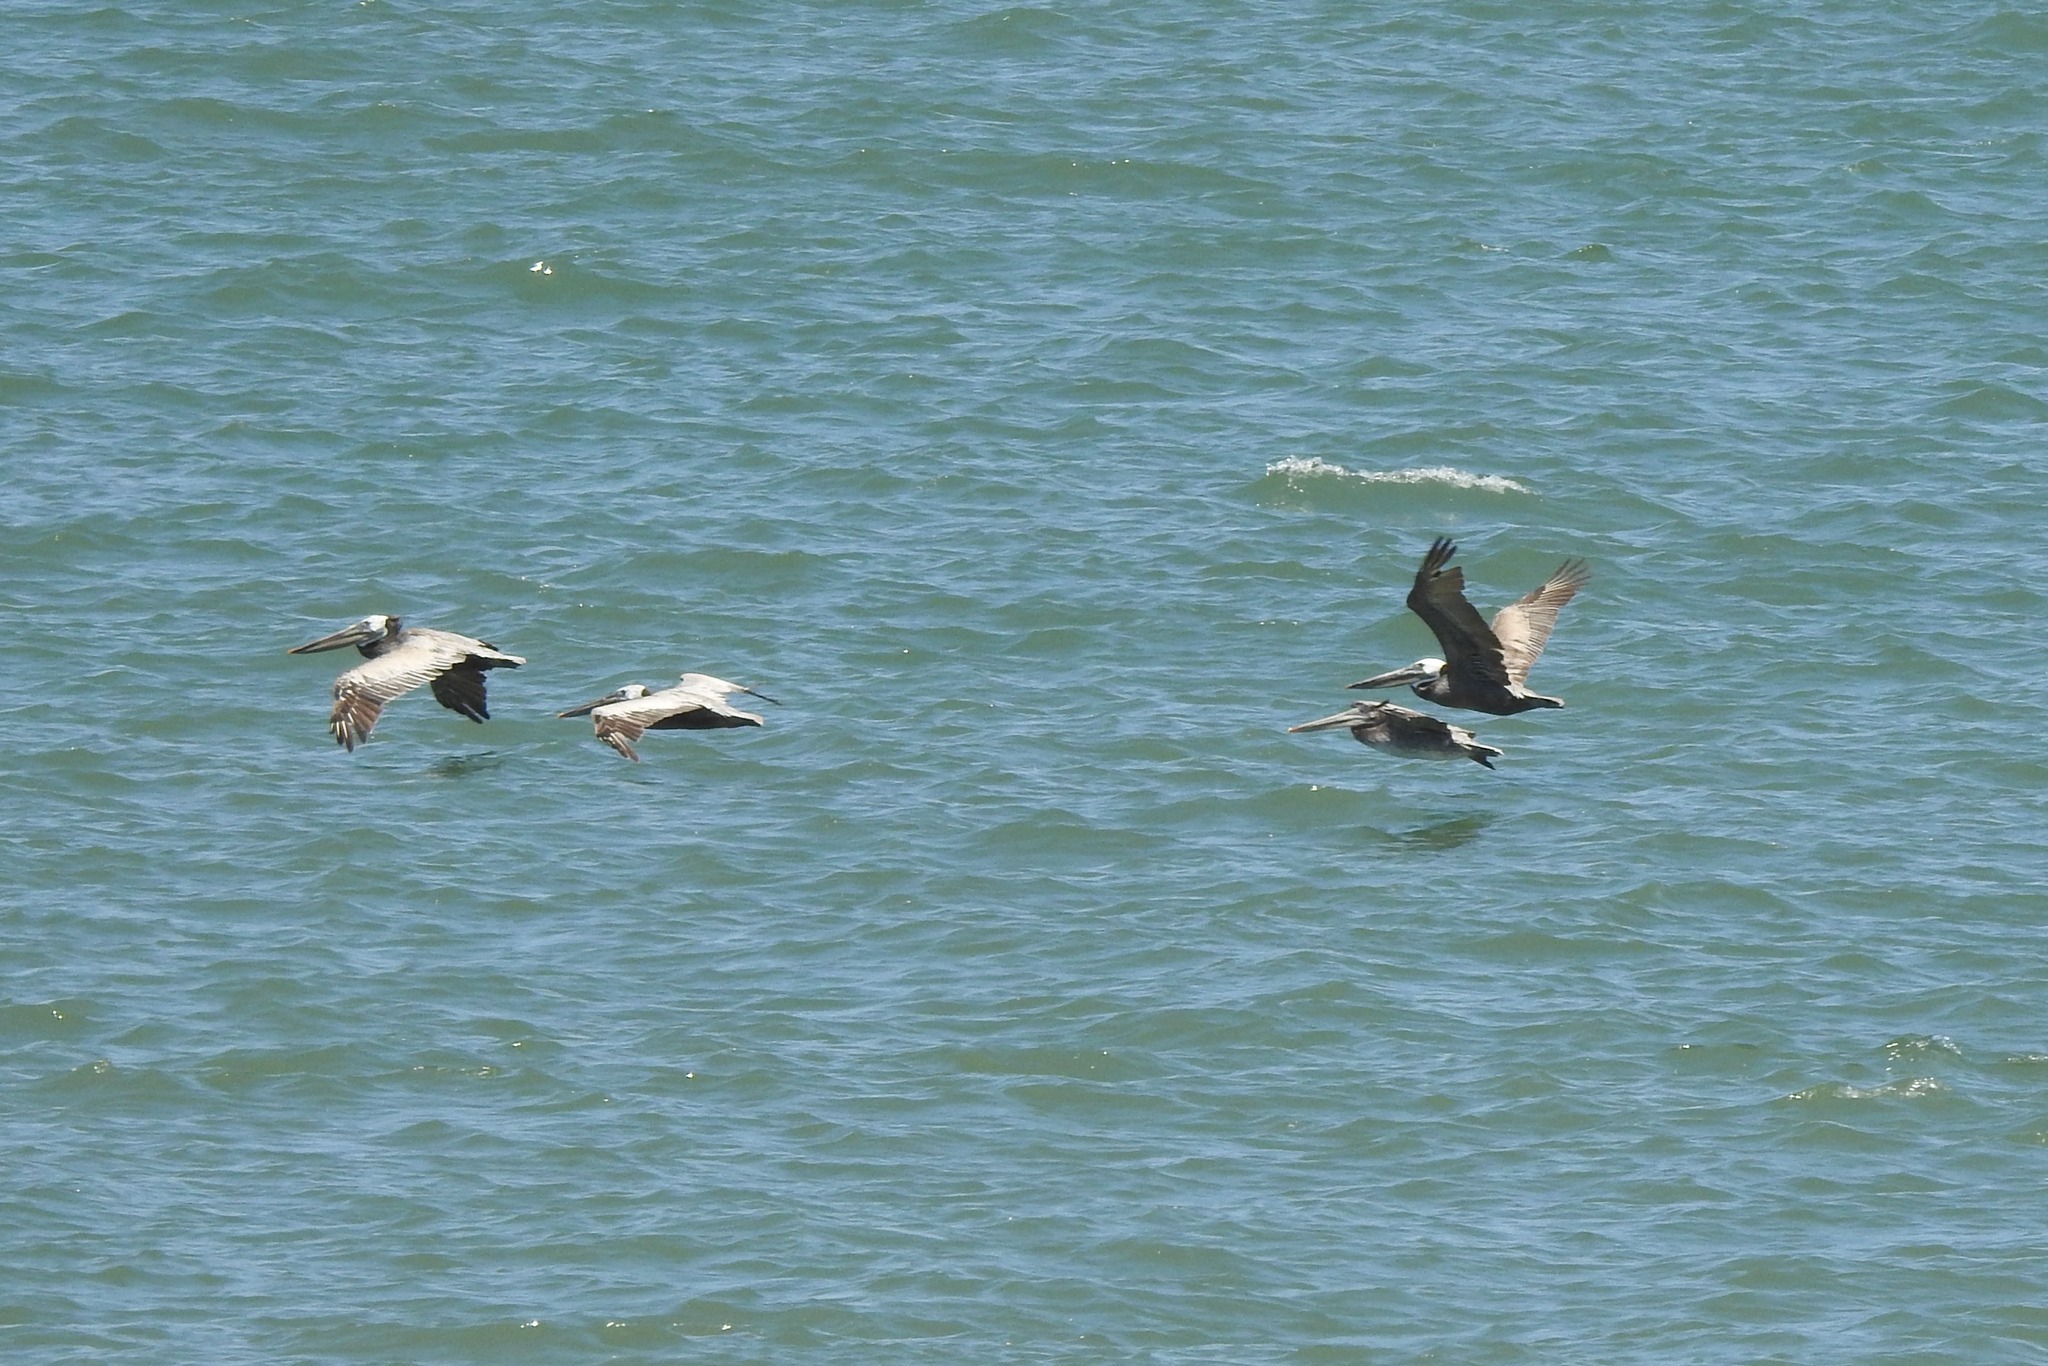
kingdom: Animalia
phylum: Chordata
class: Aves
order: Pelecaniformes
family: Pelecanidae
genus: Pelecanus
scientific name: Pelecanus occidentalis
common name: Brown pelican
